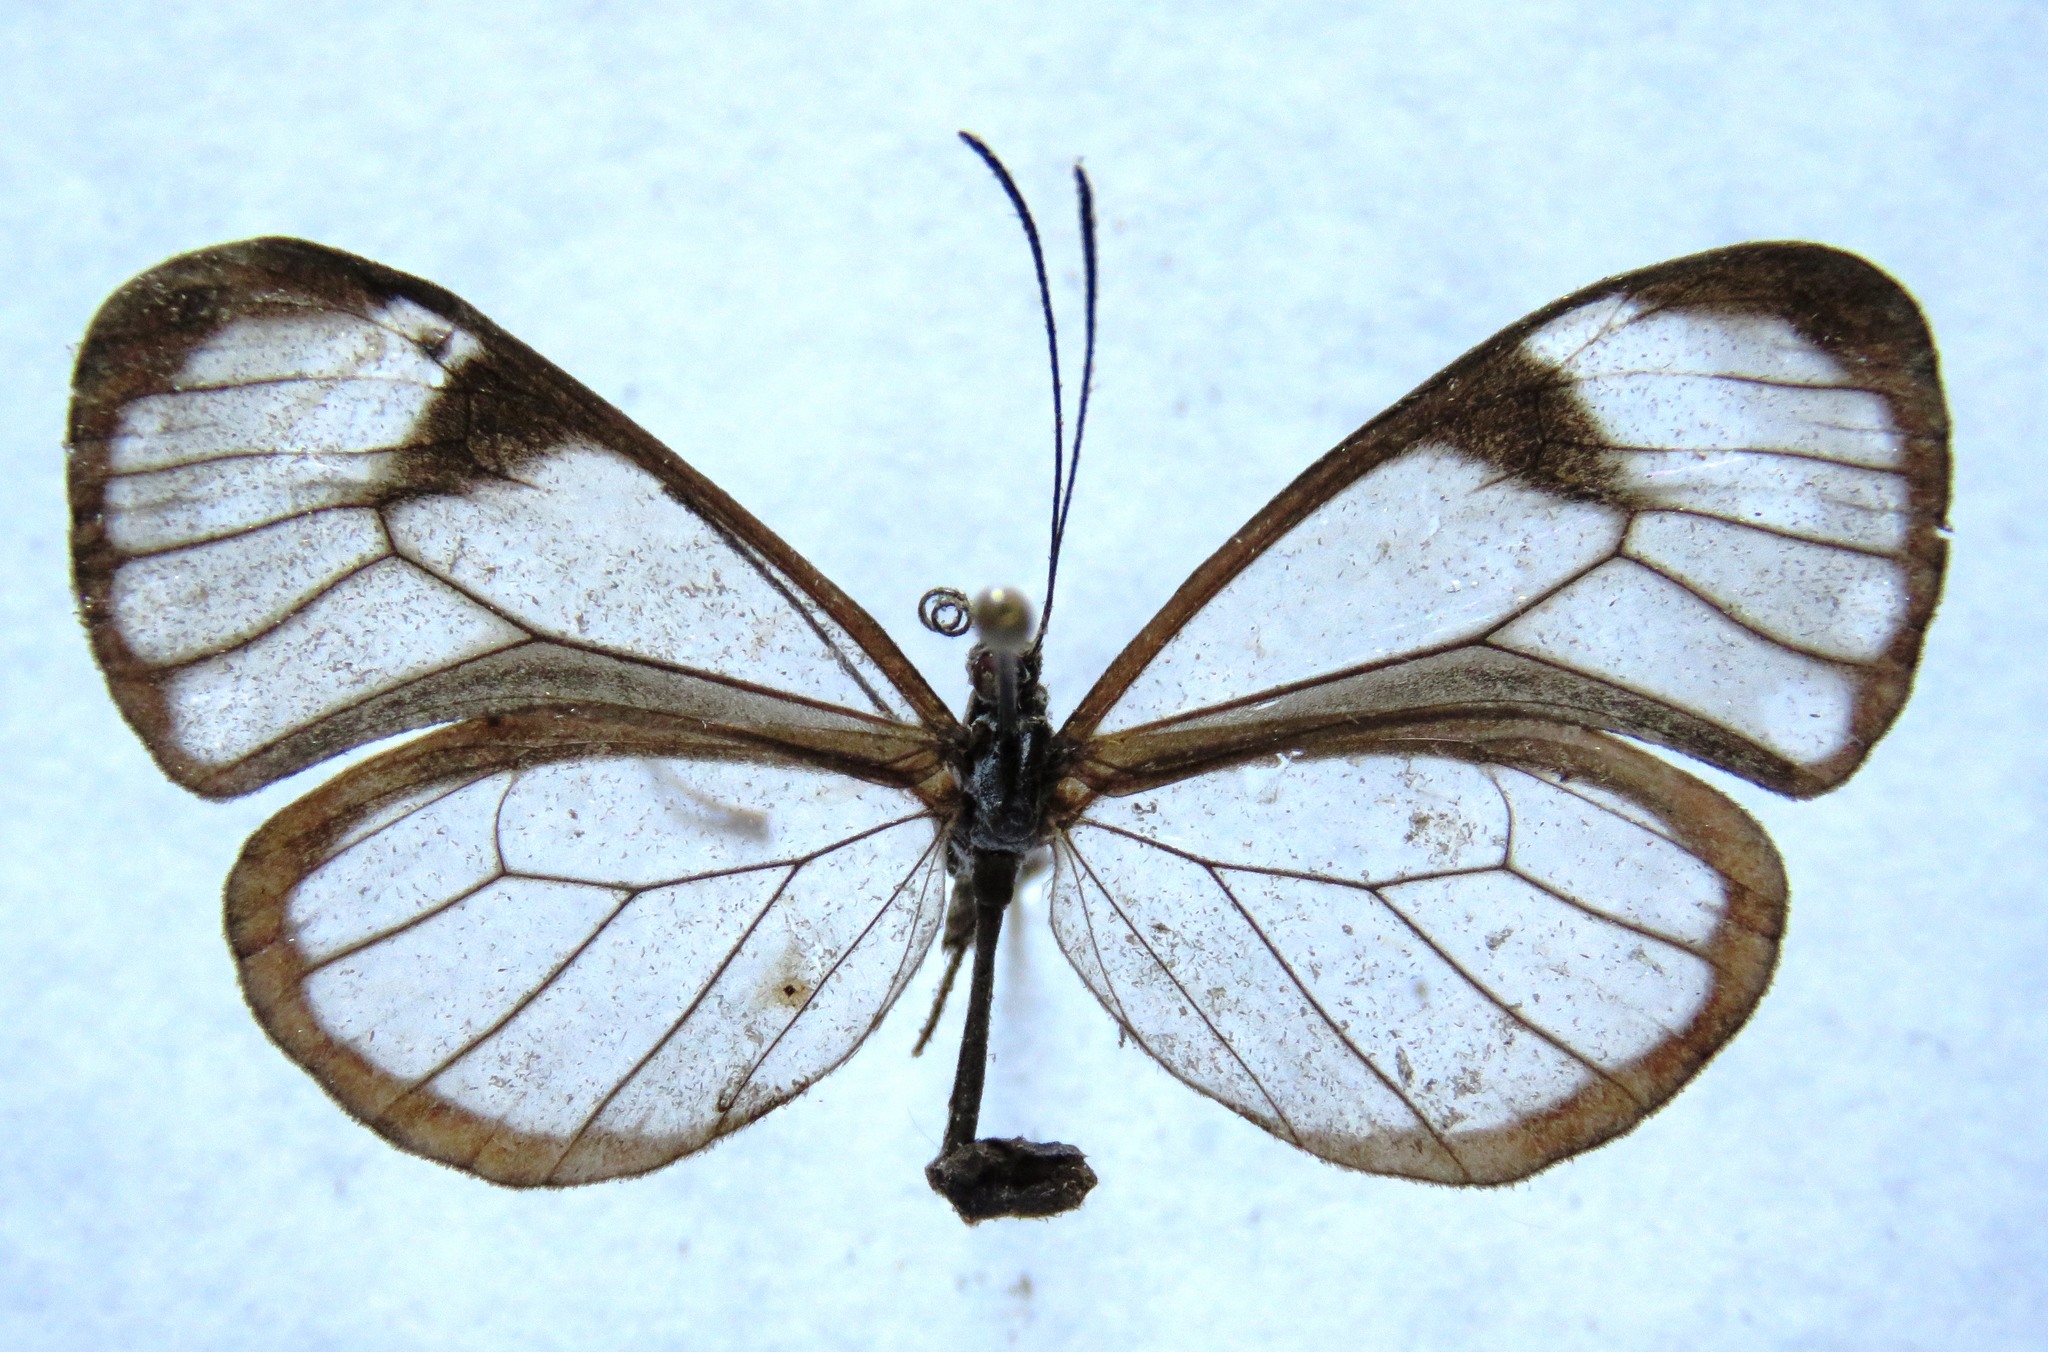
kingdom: Animalia
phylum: Arthropoda
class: Insecta
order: Lepidoptera
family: Nymphalidae
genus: Hypoleria
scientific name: Hypoleria lavinia
